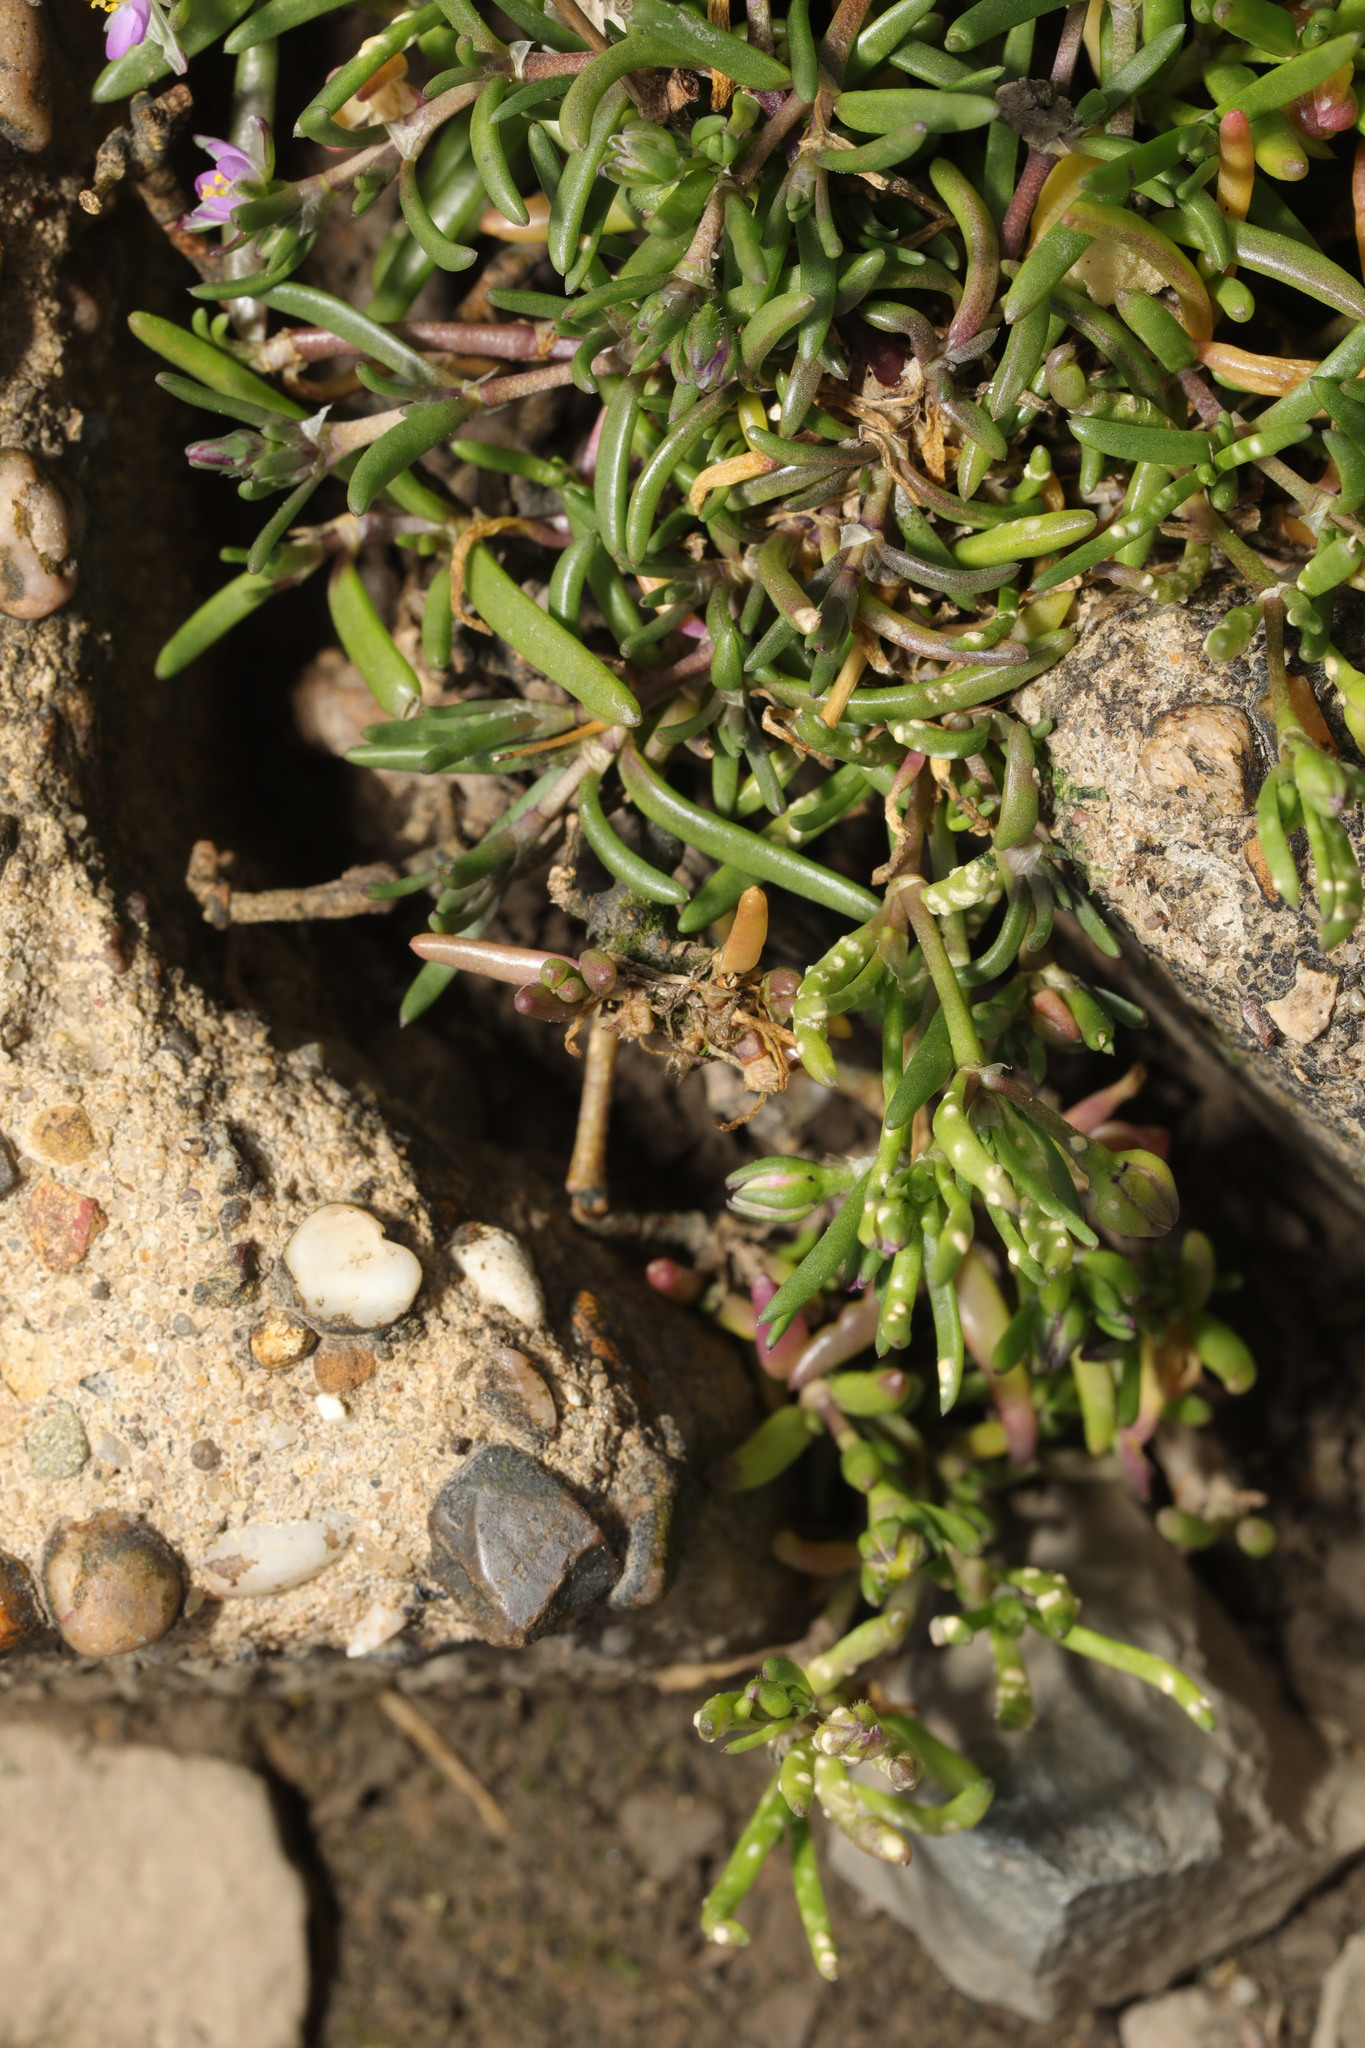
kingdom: Plantae
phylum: Tracheophyta
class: Magnoliopsida
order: Caryophyllales
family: Caryophyllaceae
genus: Spergularia
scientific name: Spergularia marina
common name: Lesser sea-spurrey
